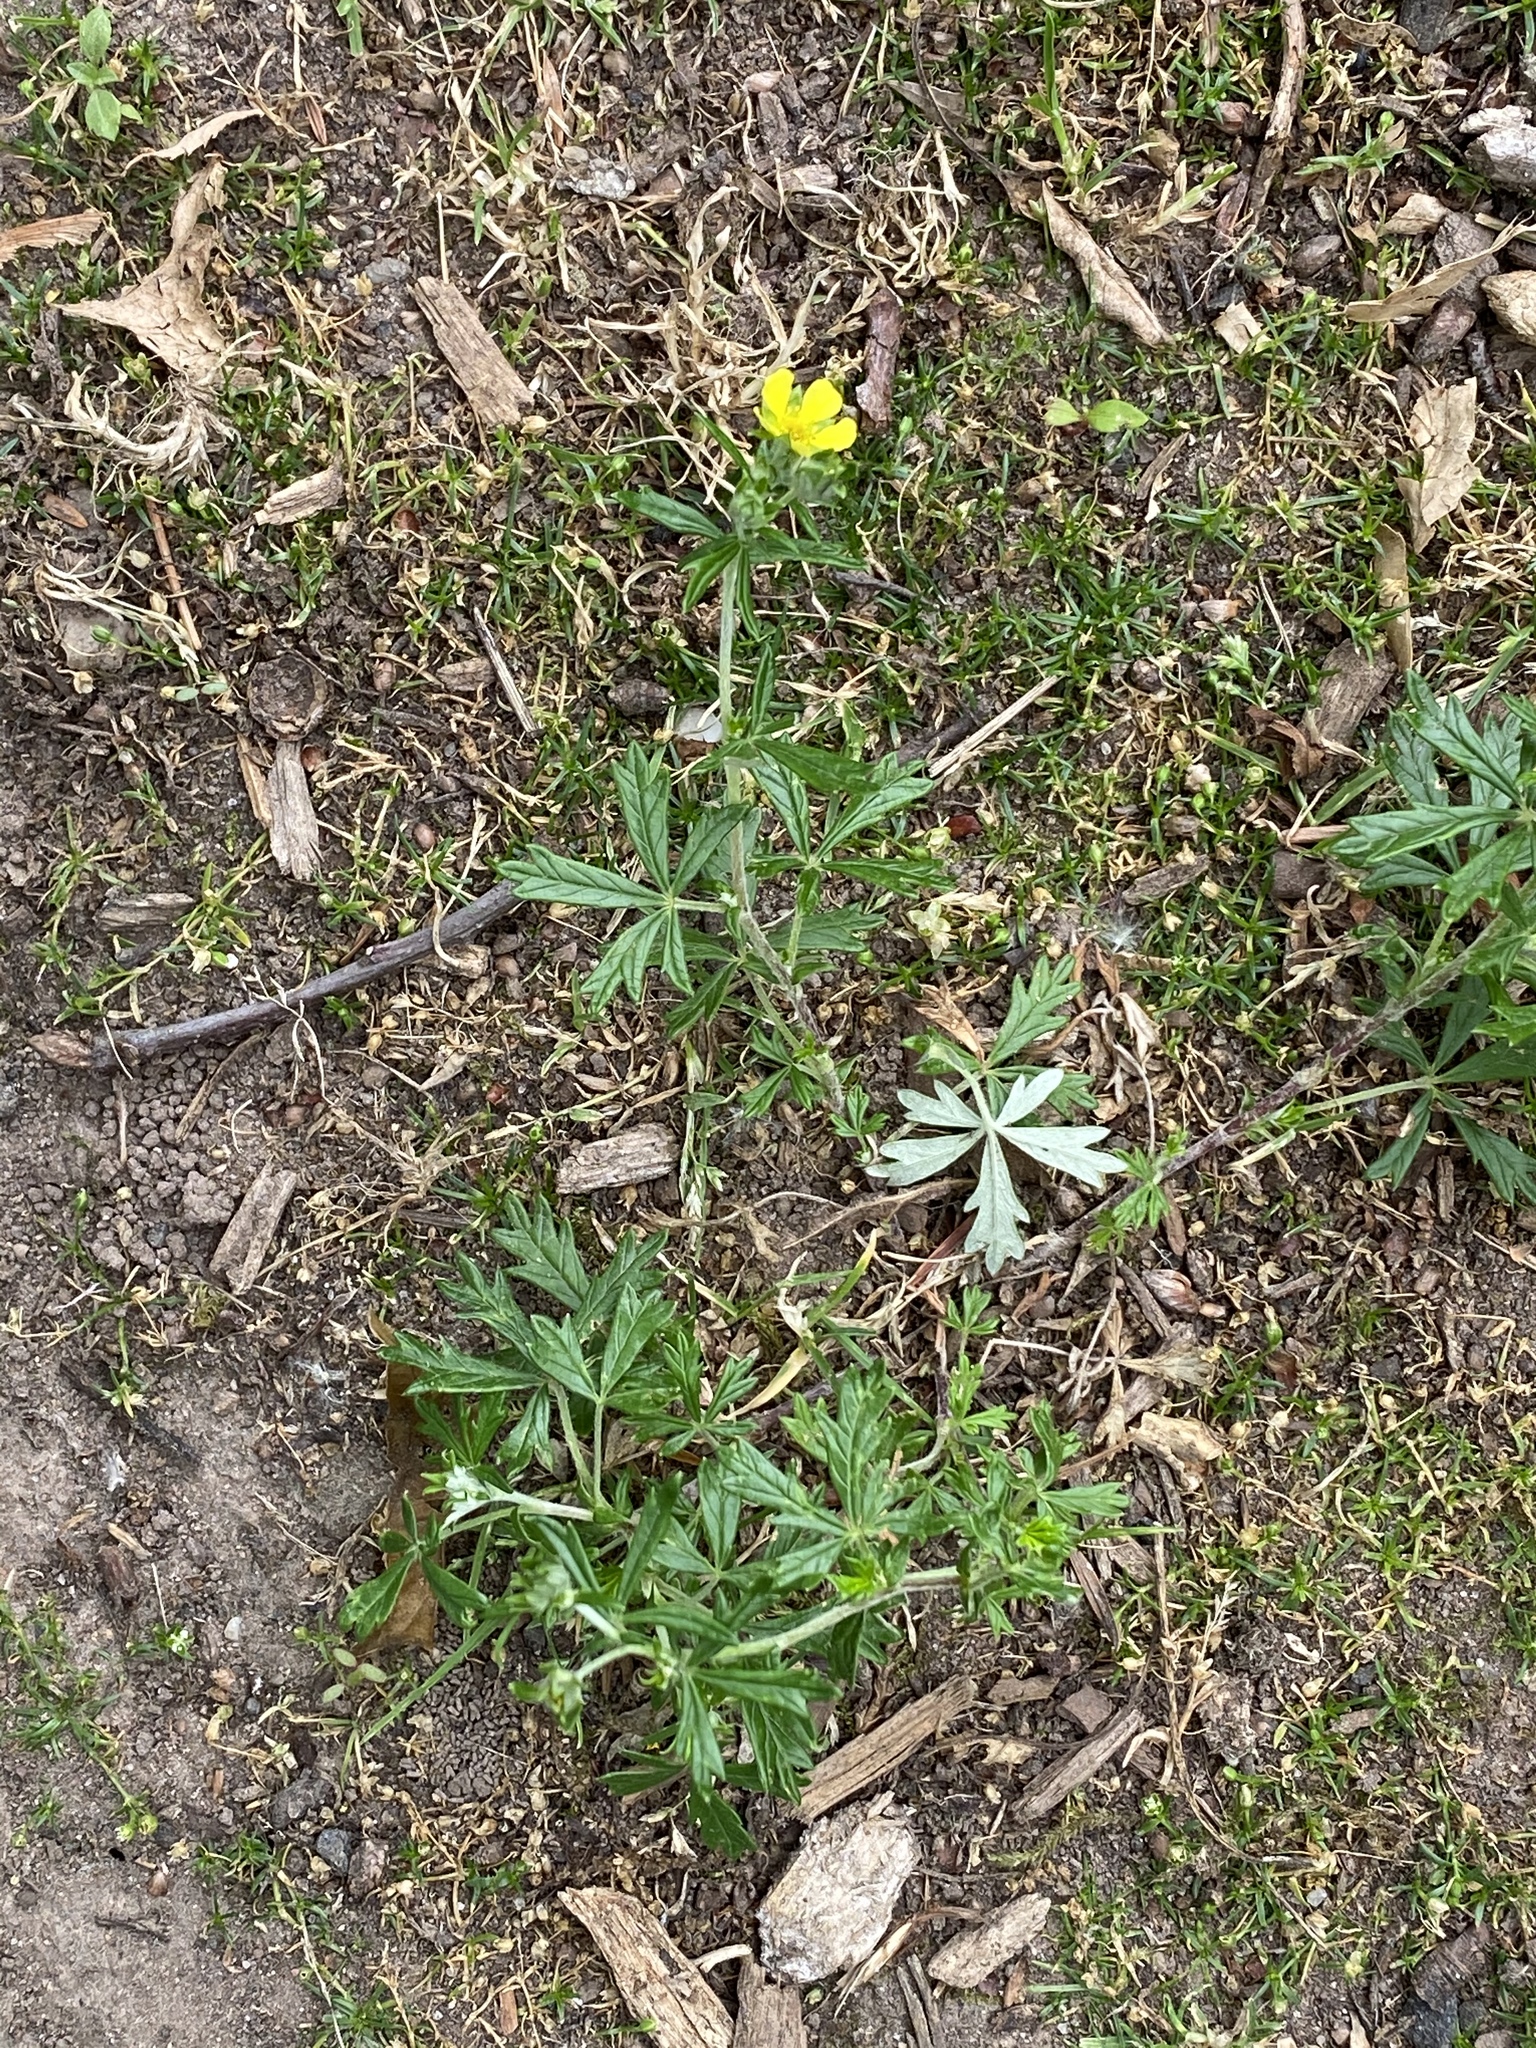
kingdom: Plantae
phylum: Tracheophyta
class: Magnoliopsida
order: Rosales
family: Rosaceae
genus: Potentilla
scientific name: Potentilla argentea
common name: Hoary cinquefoil
